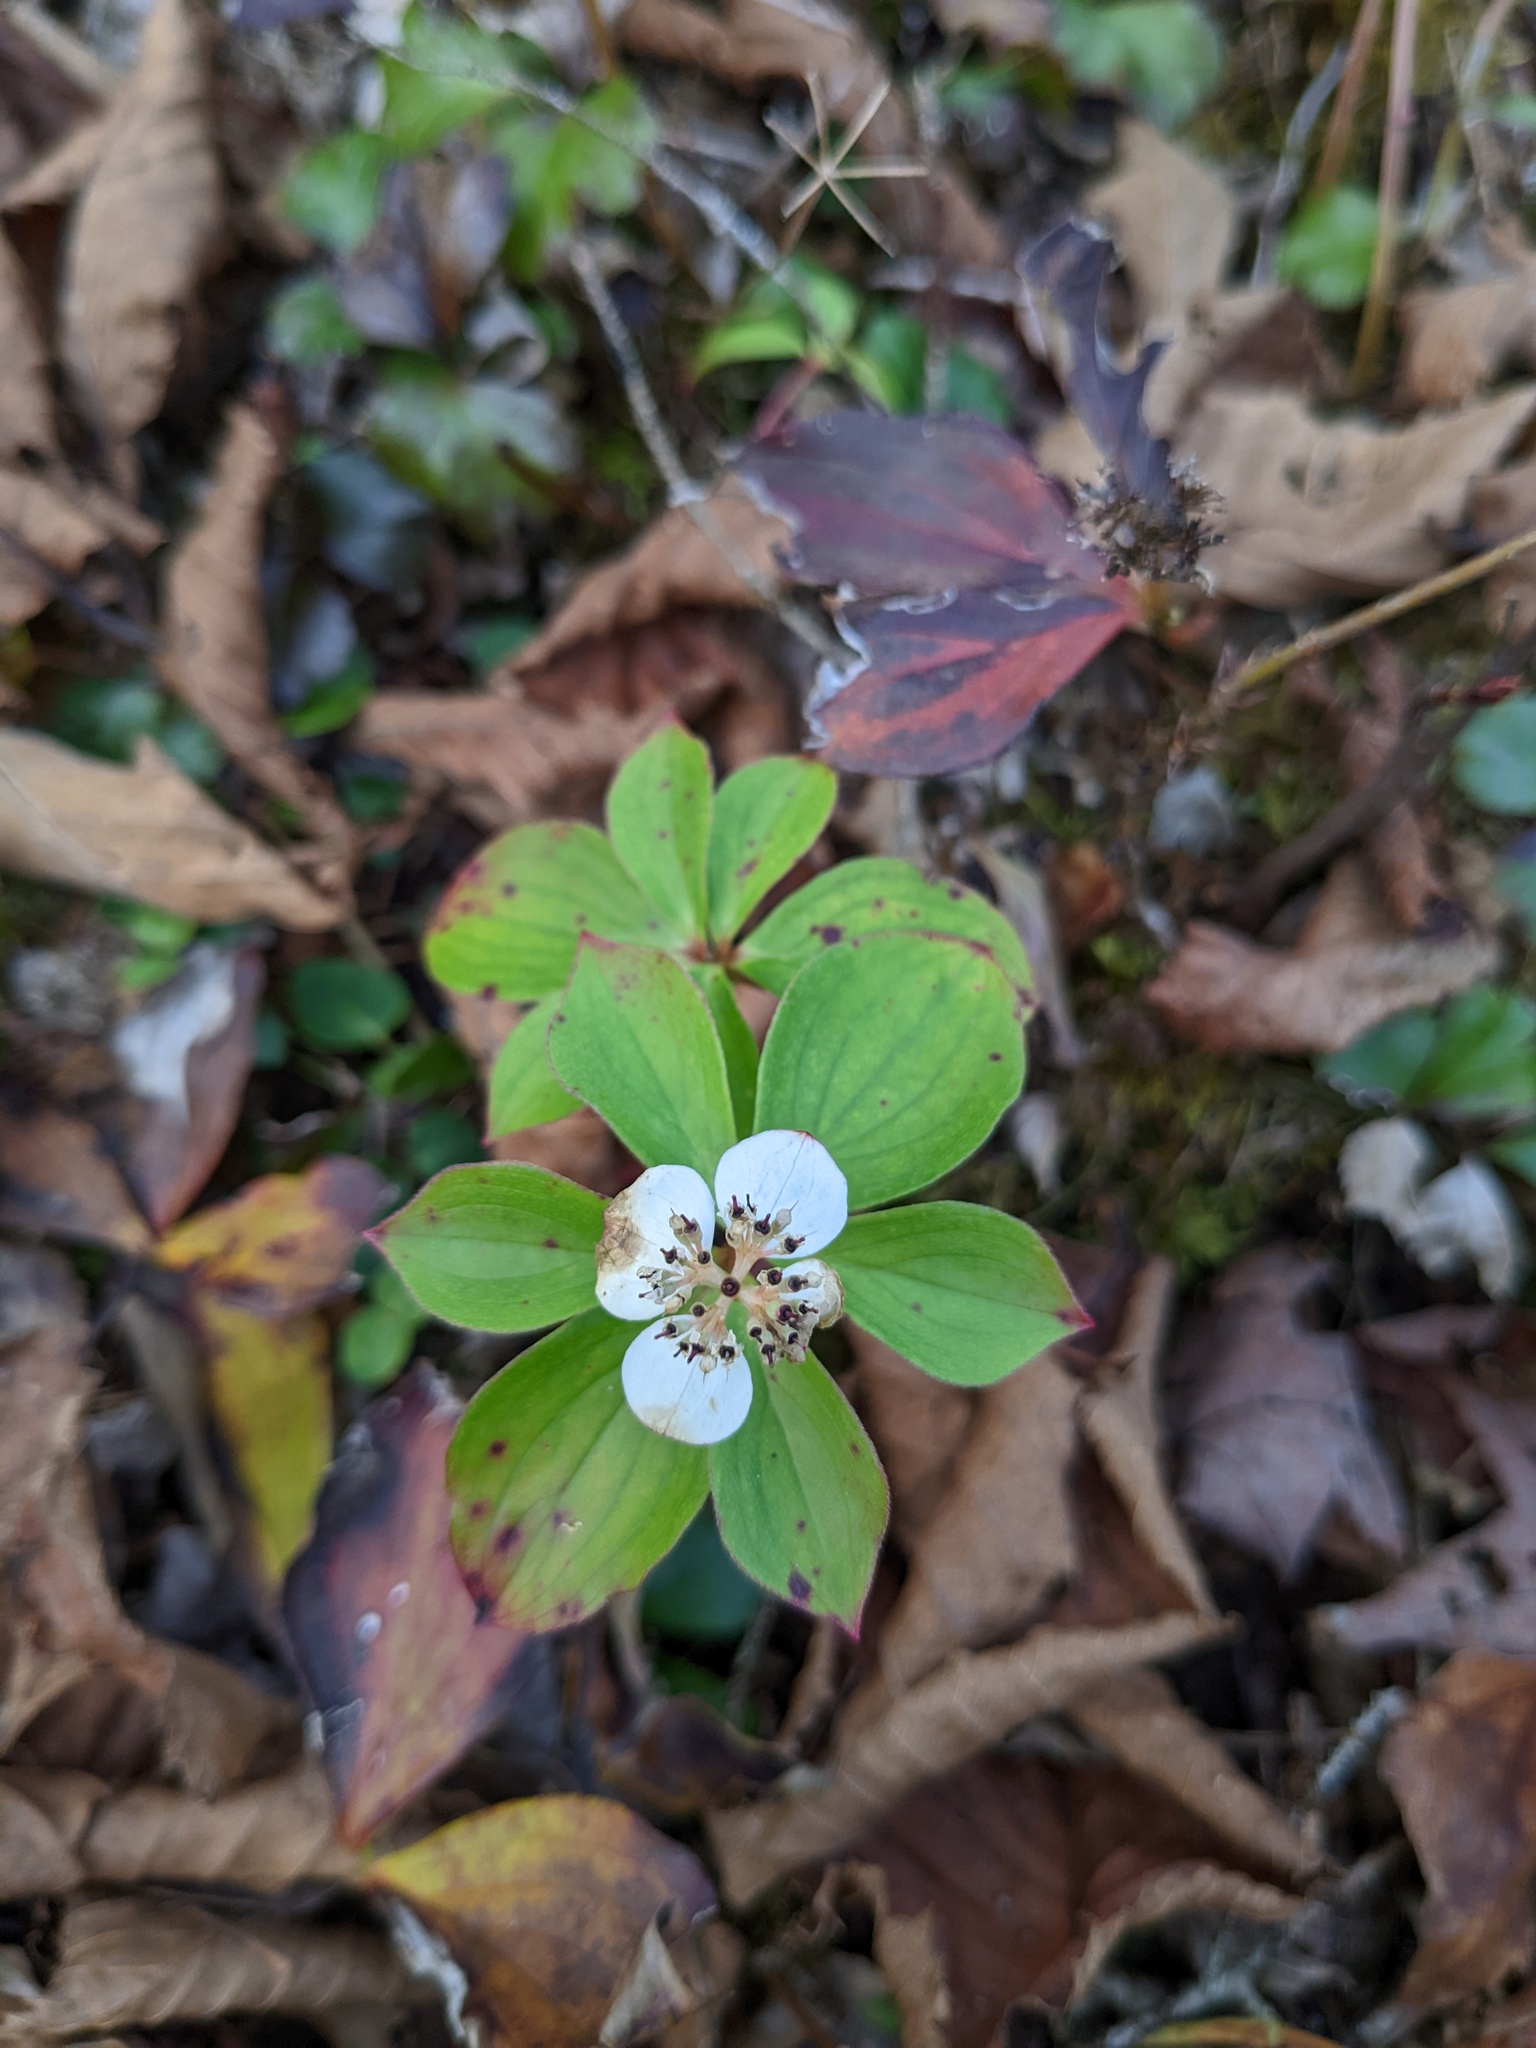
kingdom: Plantae
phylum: Tracheophyta
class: Magnoliopsida
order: Cornales
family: Cornaceae
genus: Cornus
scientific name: Cornus canadensis
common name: Creeping dogwood
